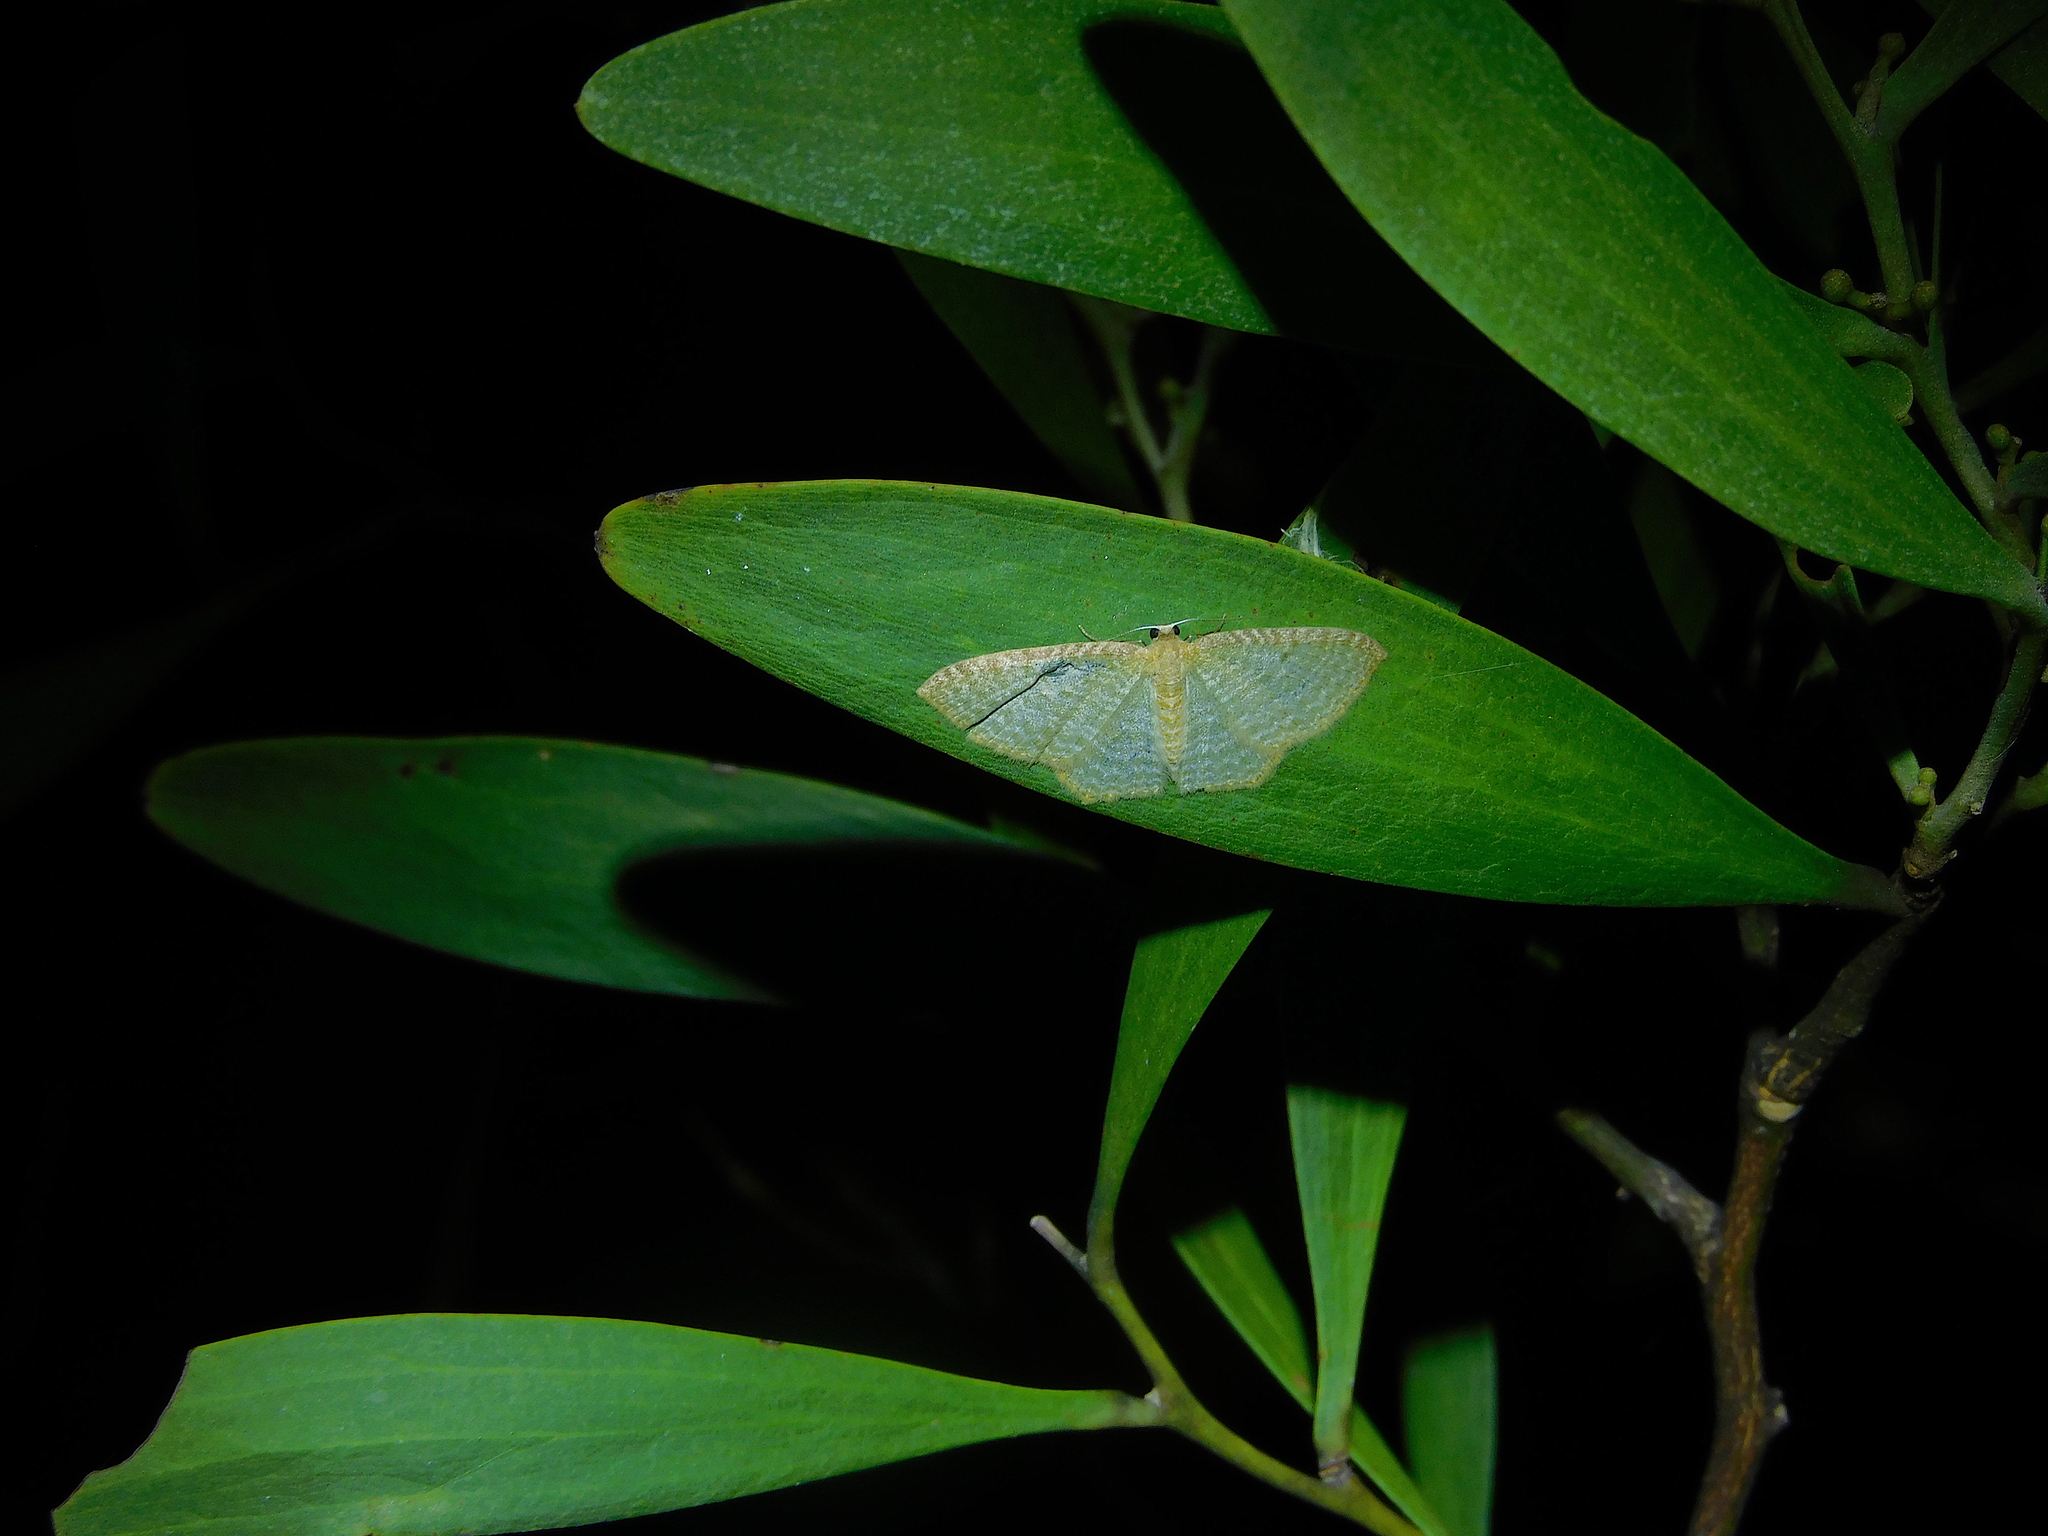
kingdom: Animalia
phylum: Arthropoda
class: Insecta
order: Lepidoptera
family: Geometridae
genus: Poecilasthena
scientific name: Poecilasthena pulchraria
